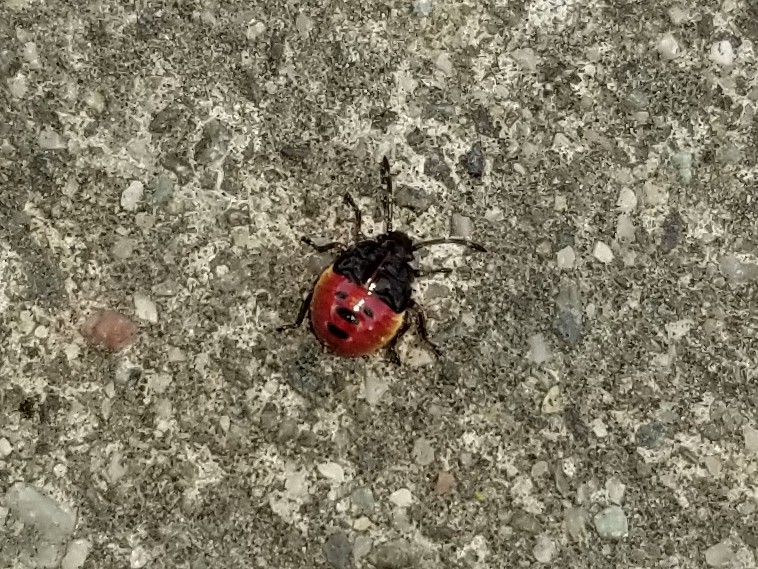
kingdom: Animalia
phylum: Arthropoda
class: Insecta
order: Hemiptera
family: Acanthosomatidae
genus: Elasmostethus
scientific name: Elasmostethus interstinctus
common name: Birch shieldbug
